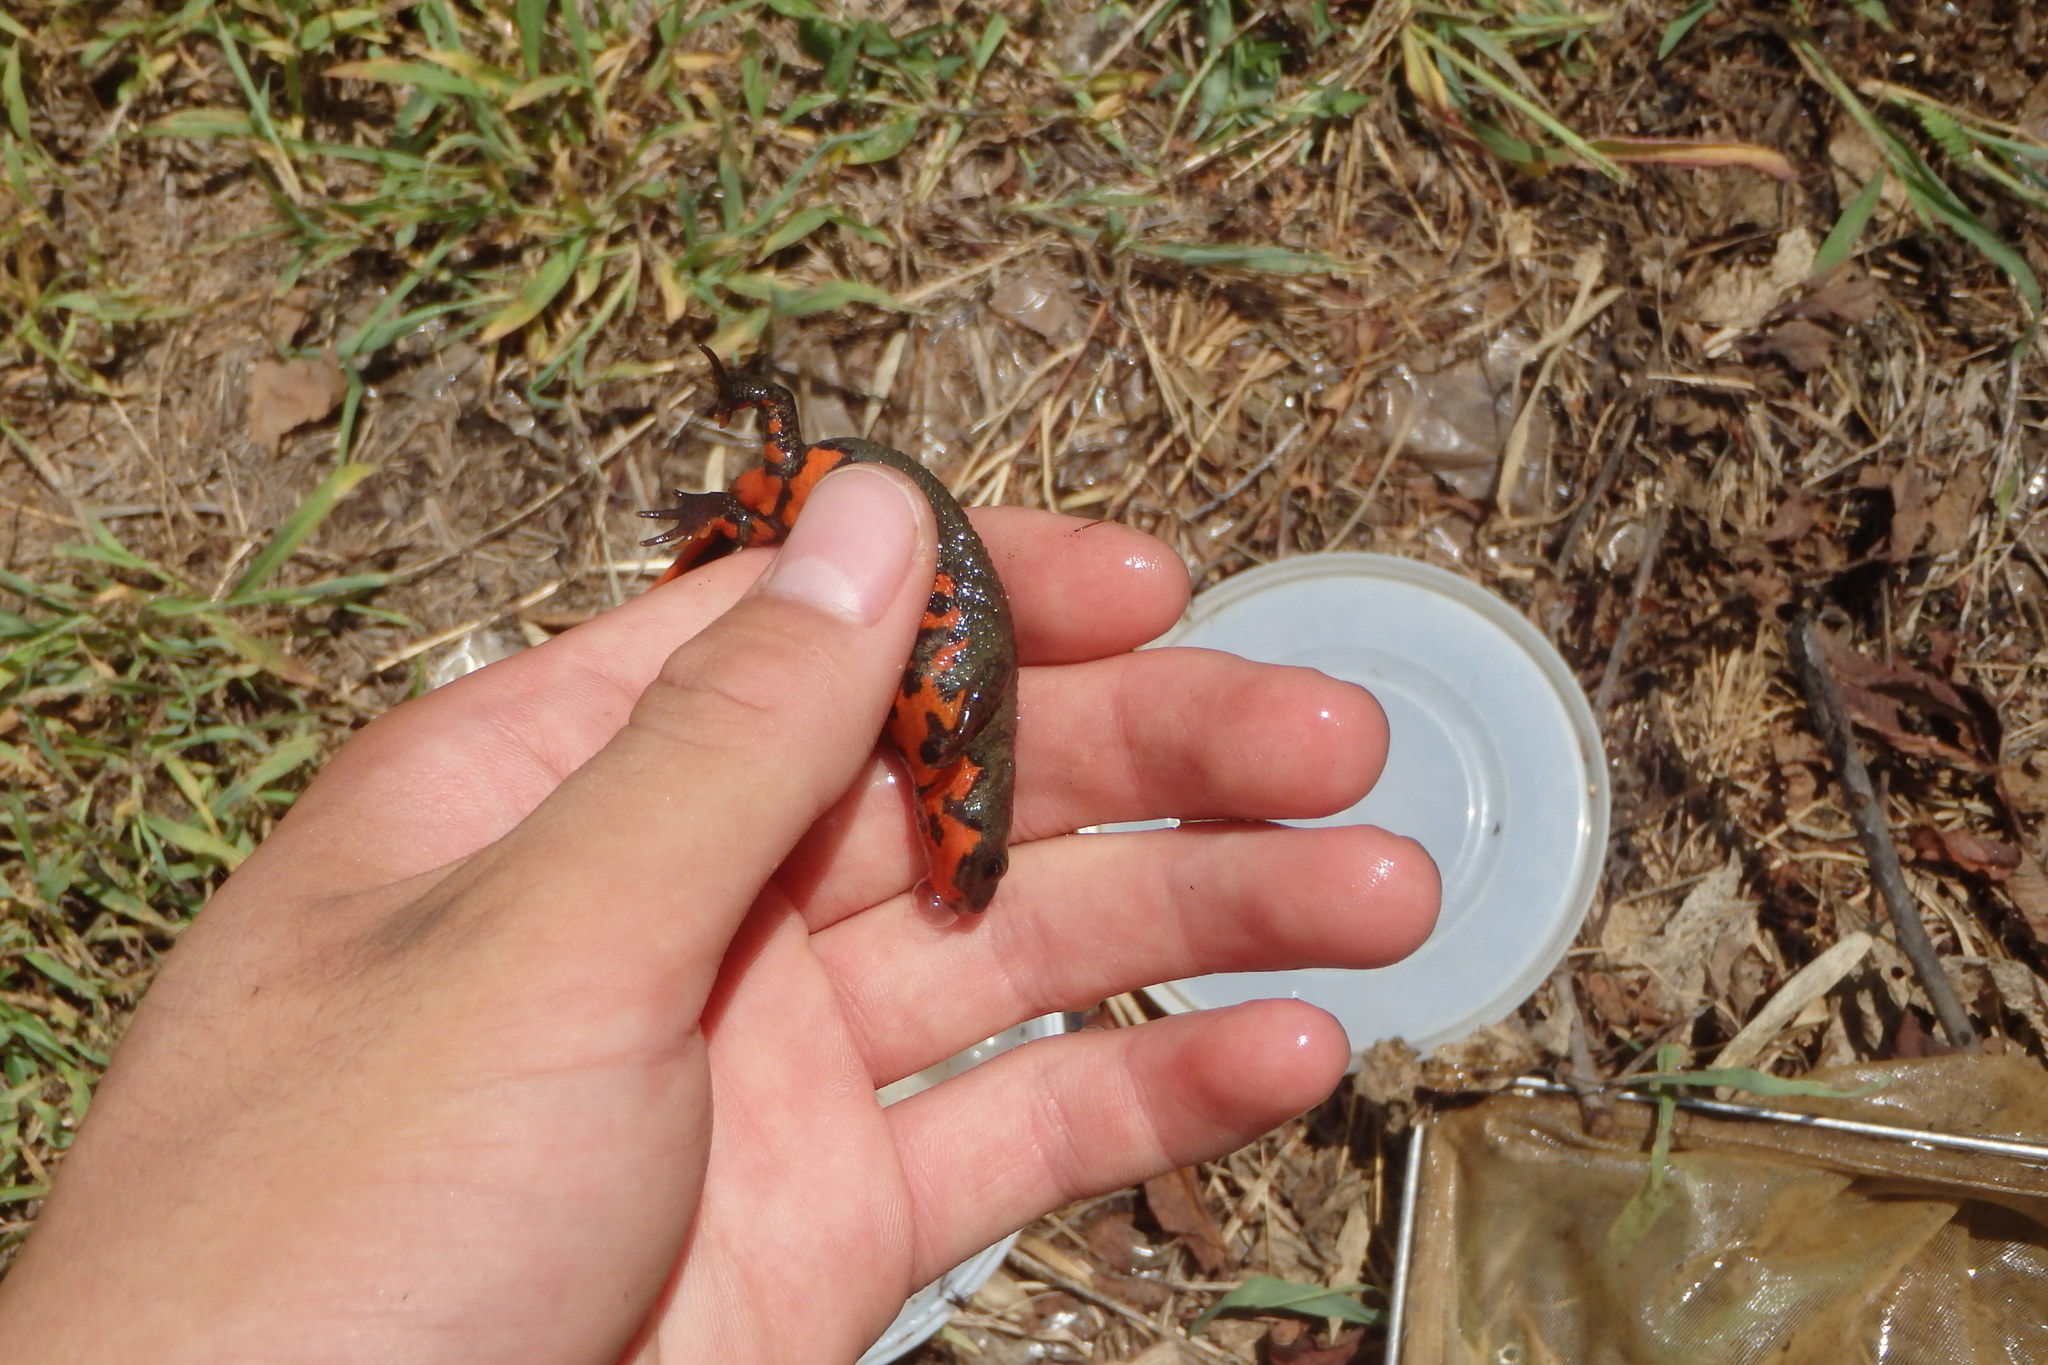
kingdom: Animalia
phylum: Chordata
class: Amphibia
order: Caudata
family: Salamandridae
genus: Cynops
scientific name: Cynops pyrrhogaster
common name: Japanese fire-bellied newt
